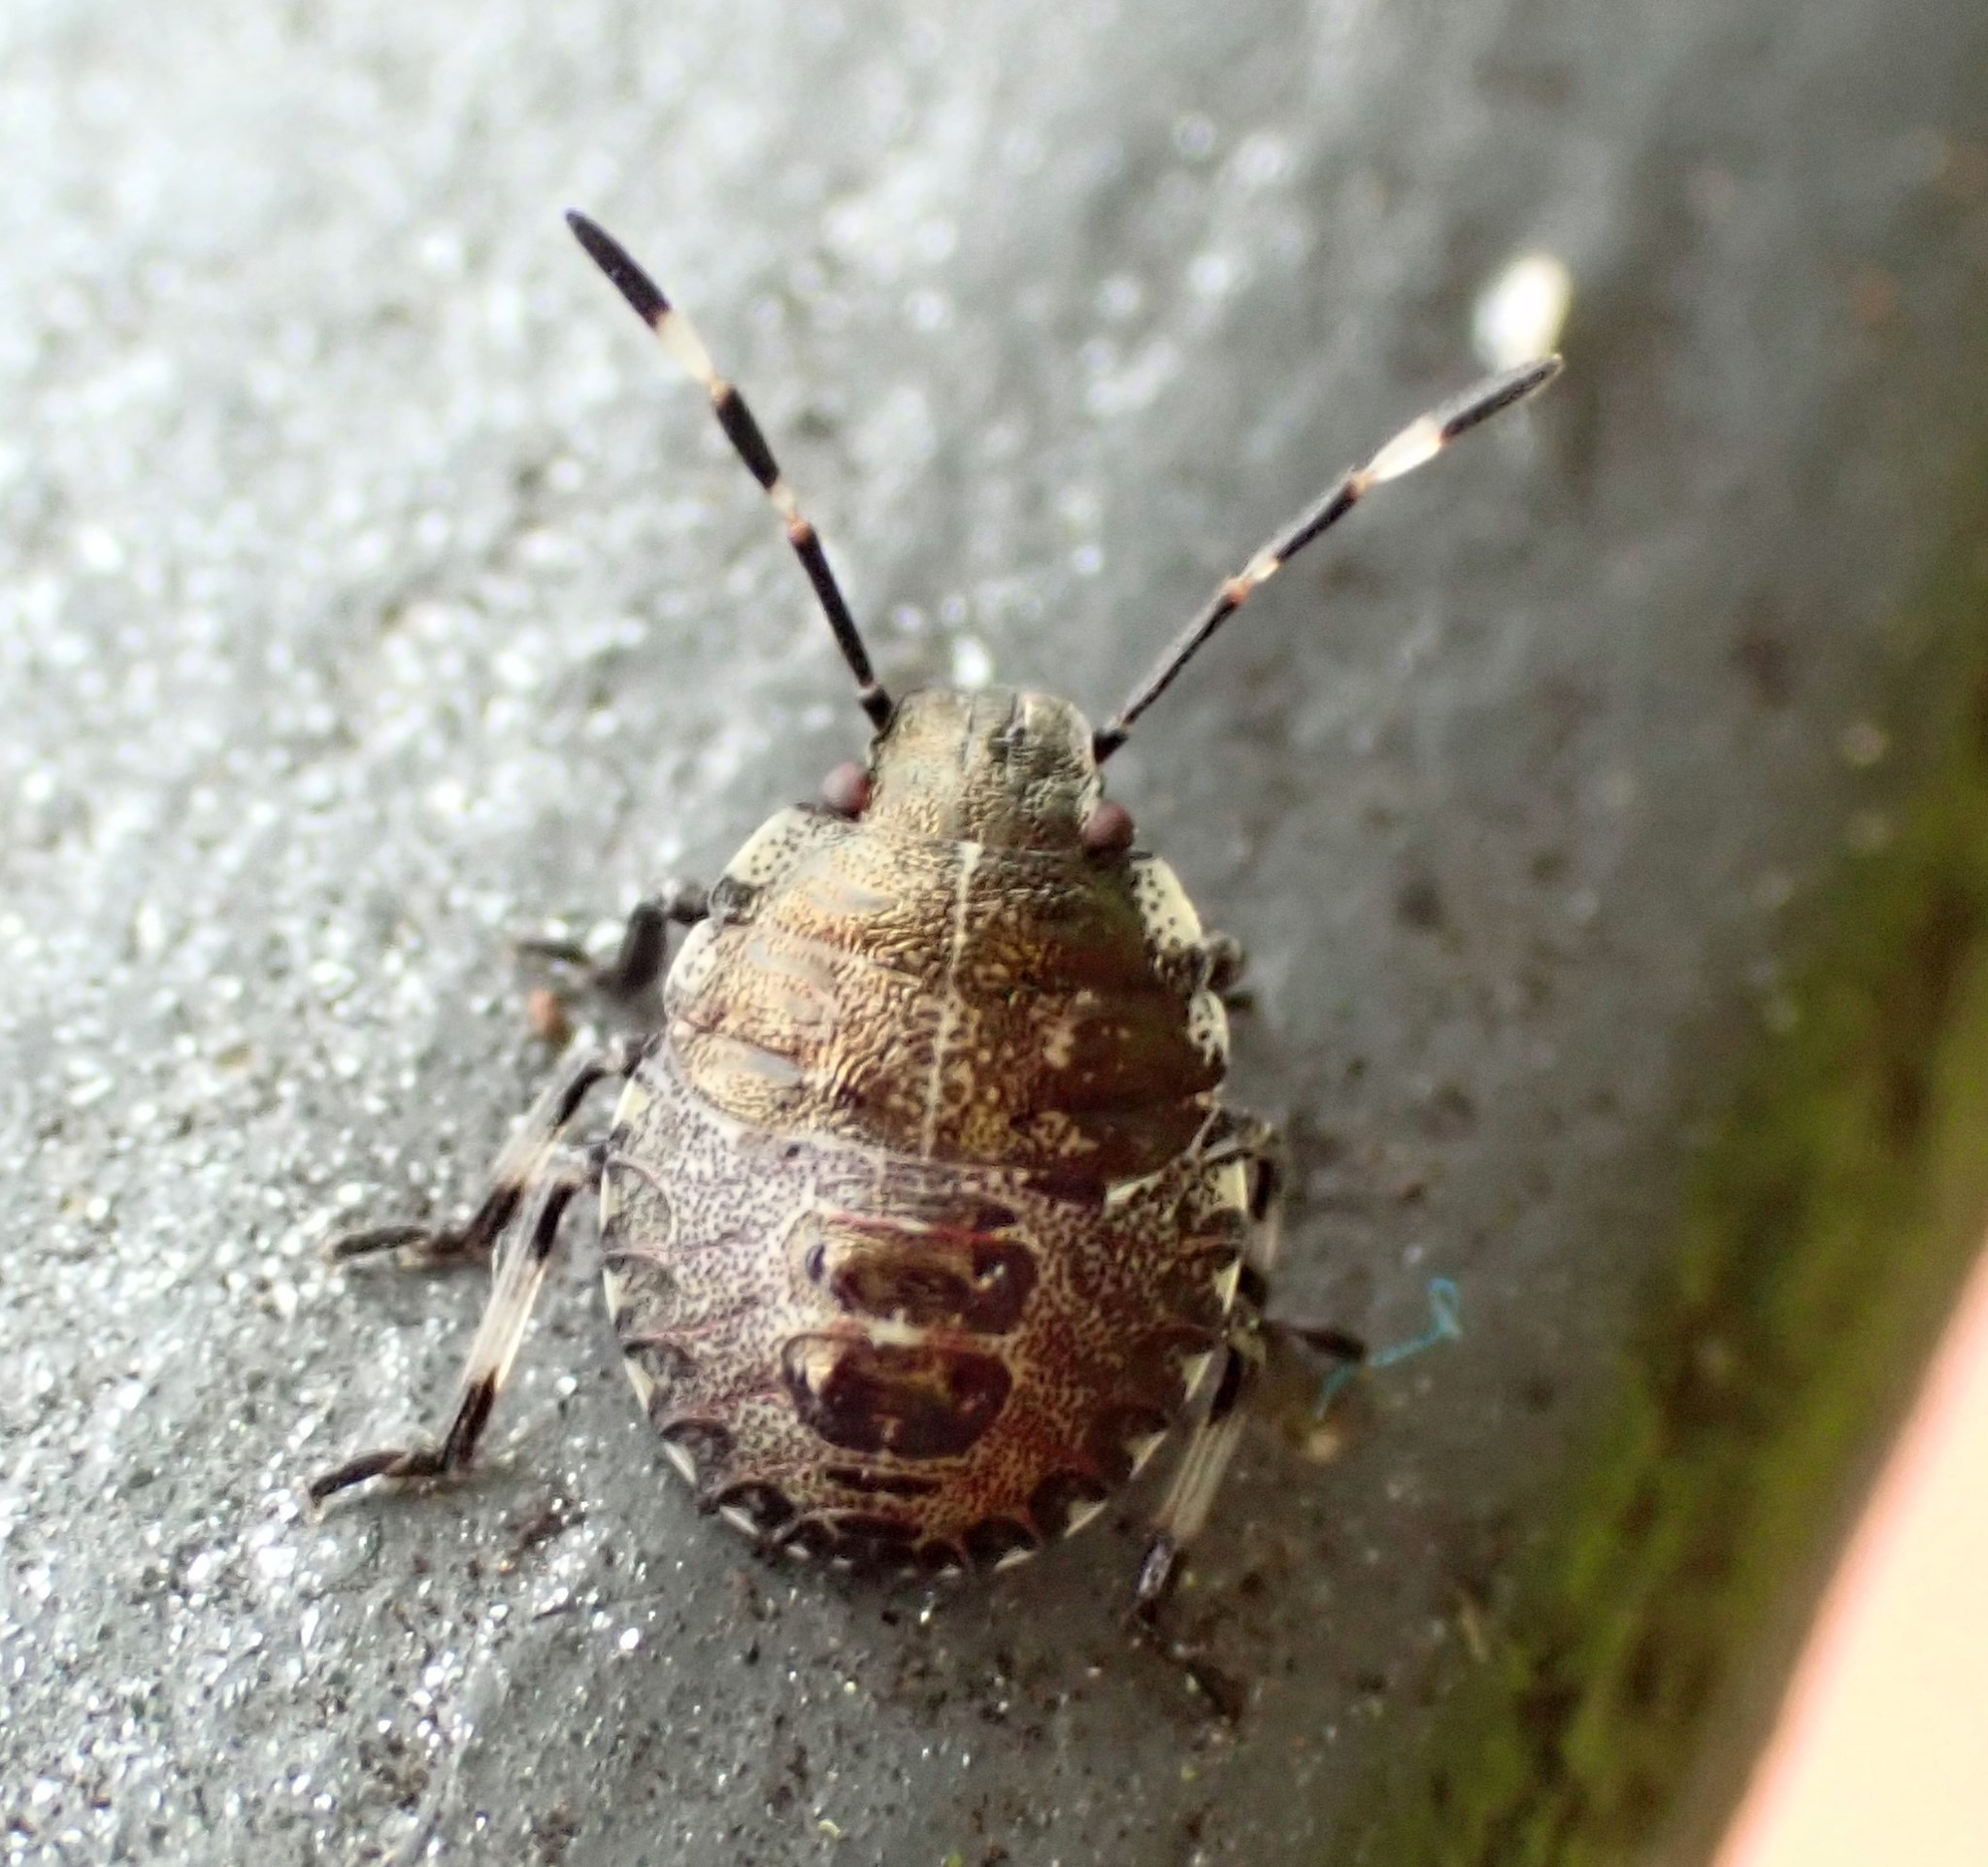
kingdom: Animalia
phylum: Arthropoda
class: Insecta
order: Hemiptera
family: Pentatomidae
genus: Rhaphigaster
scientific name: Rhaphigaster nebulosa
